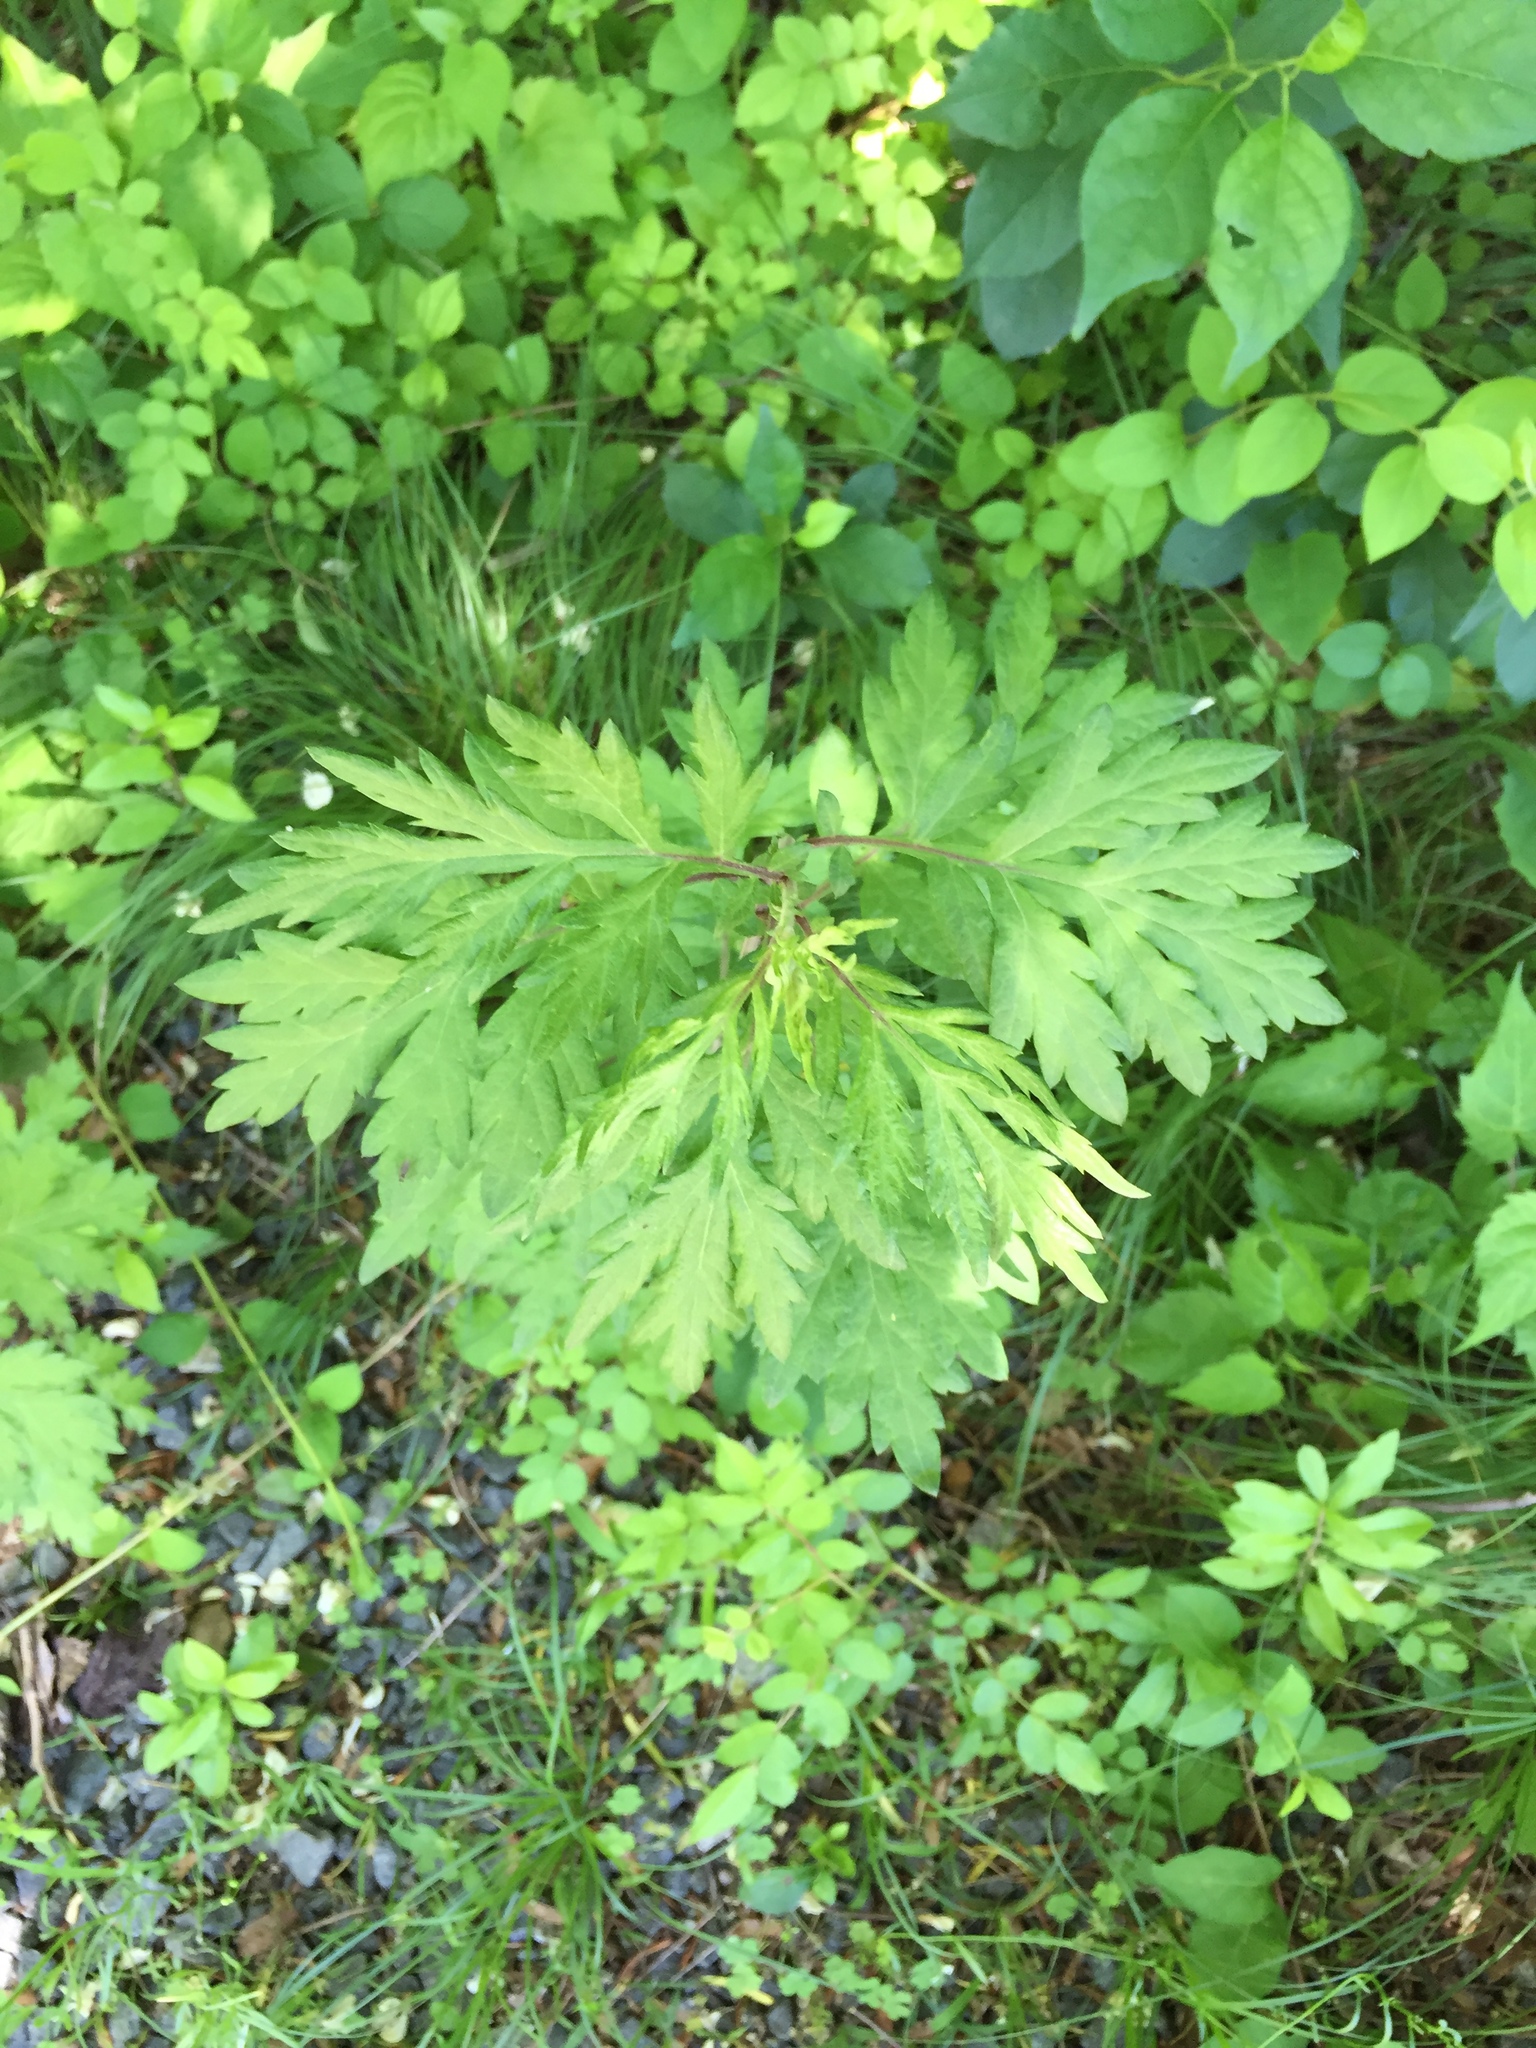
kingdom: Plantae
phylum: Tracheophyta
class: Magnoliopsida
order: Asterales
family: Asteraceae
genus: Artemisia
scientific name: Artemisia vulgaris
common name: Mugwort
